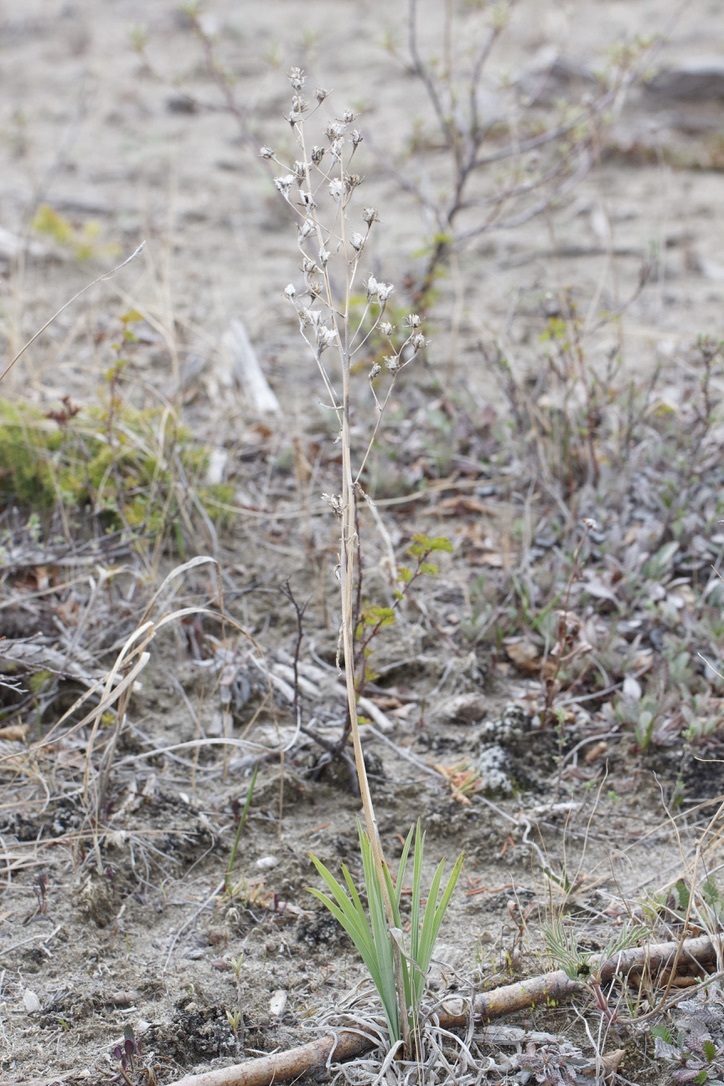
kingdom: Plantae
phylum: Tracheophyta
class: Liliopsida
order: Liliales
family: Melanthiaceae
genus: Anticlea
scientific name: Anticlea elegans
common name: Mountain death camas
